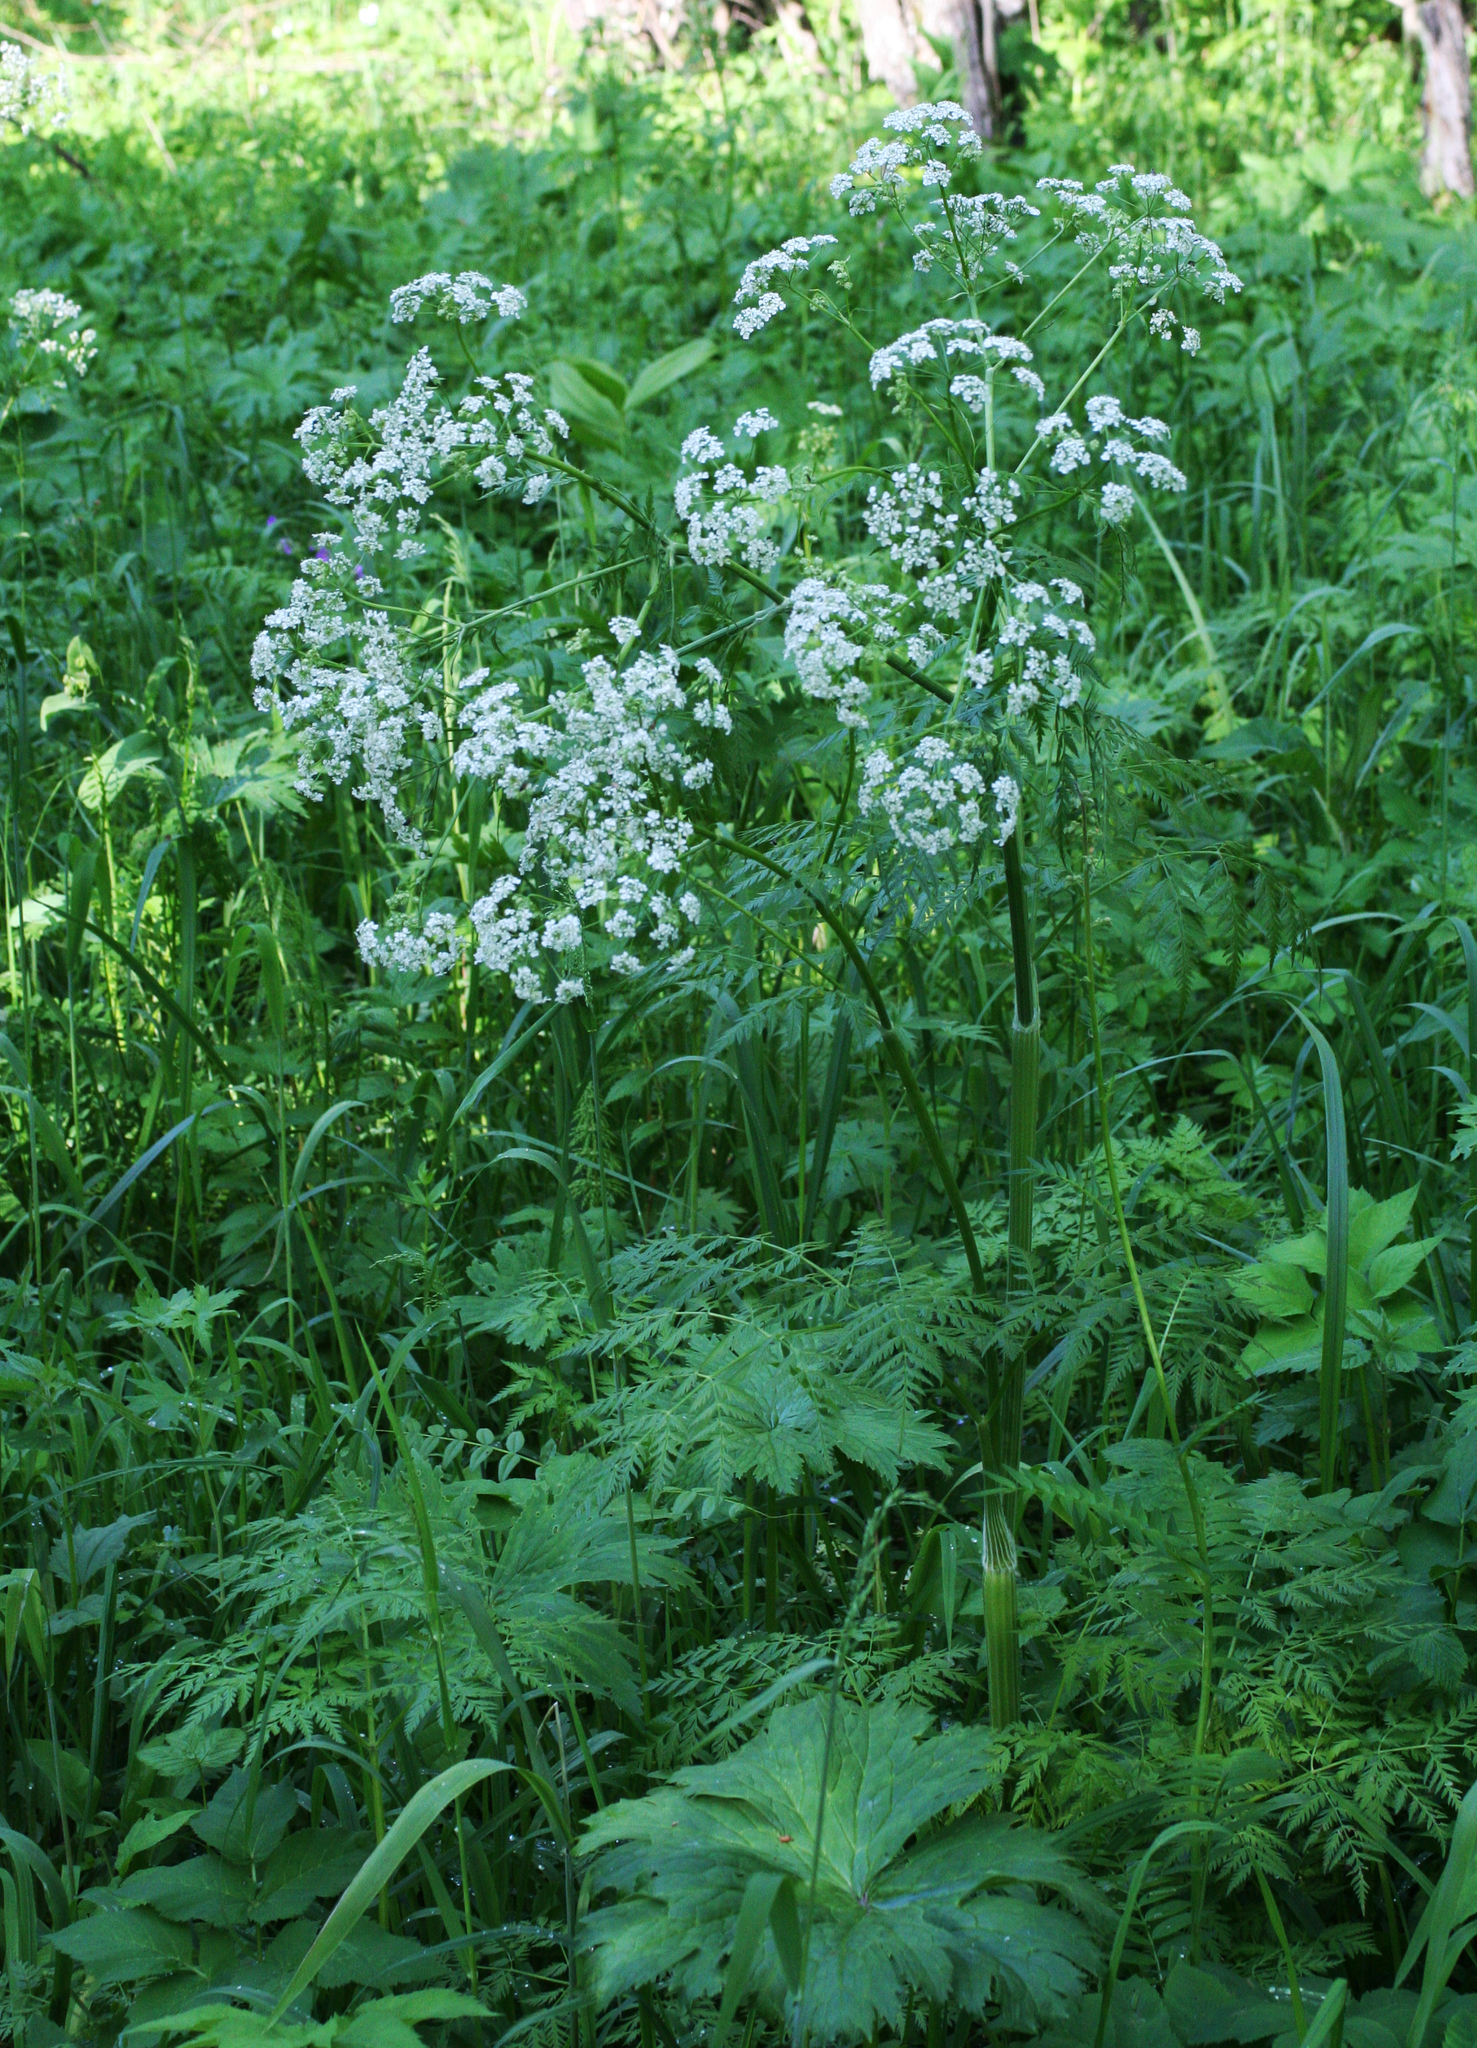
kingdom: Plantae
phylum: Tracheophyta
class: Magnoliopsida
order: Apiales
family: Apiaceae
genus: Anthriscus
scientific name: Anthriscus sylvestris
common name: Cow parsley
